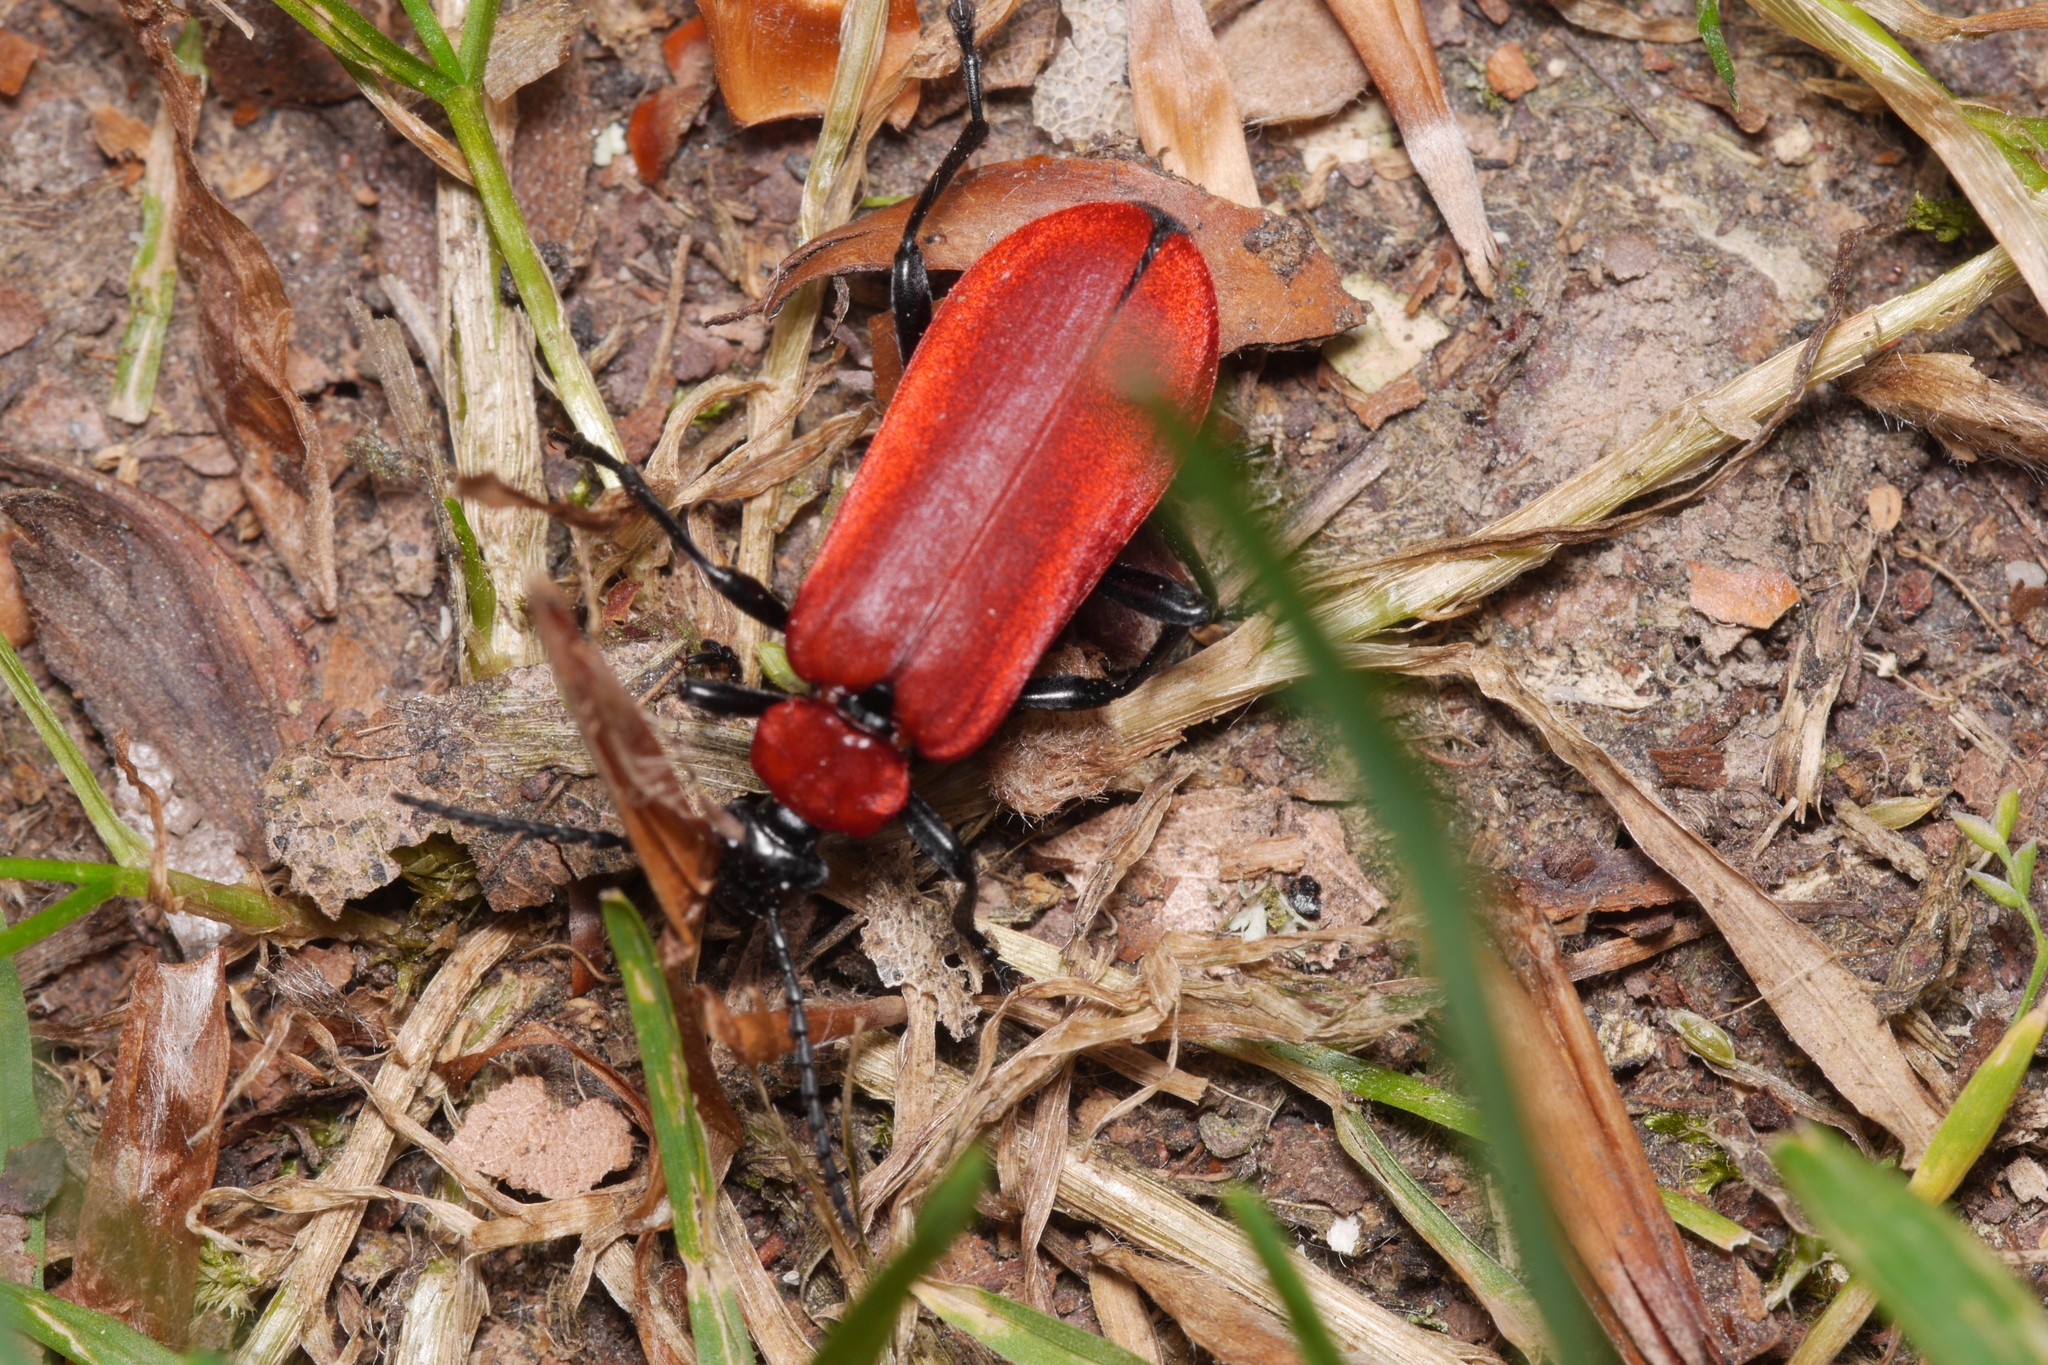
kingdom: Animalia
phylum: Arthropoda
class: Insecta
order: Coleoptera
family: Pyrochroidae
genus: Pyrochroa
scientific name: Pyrochroa coccinea
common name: Black-headed cardinal beetle
